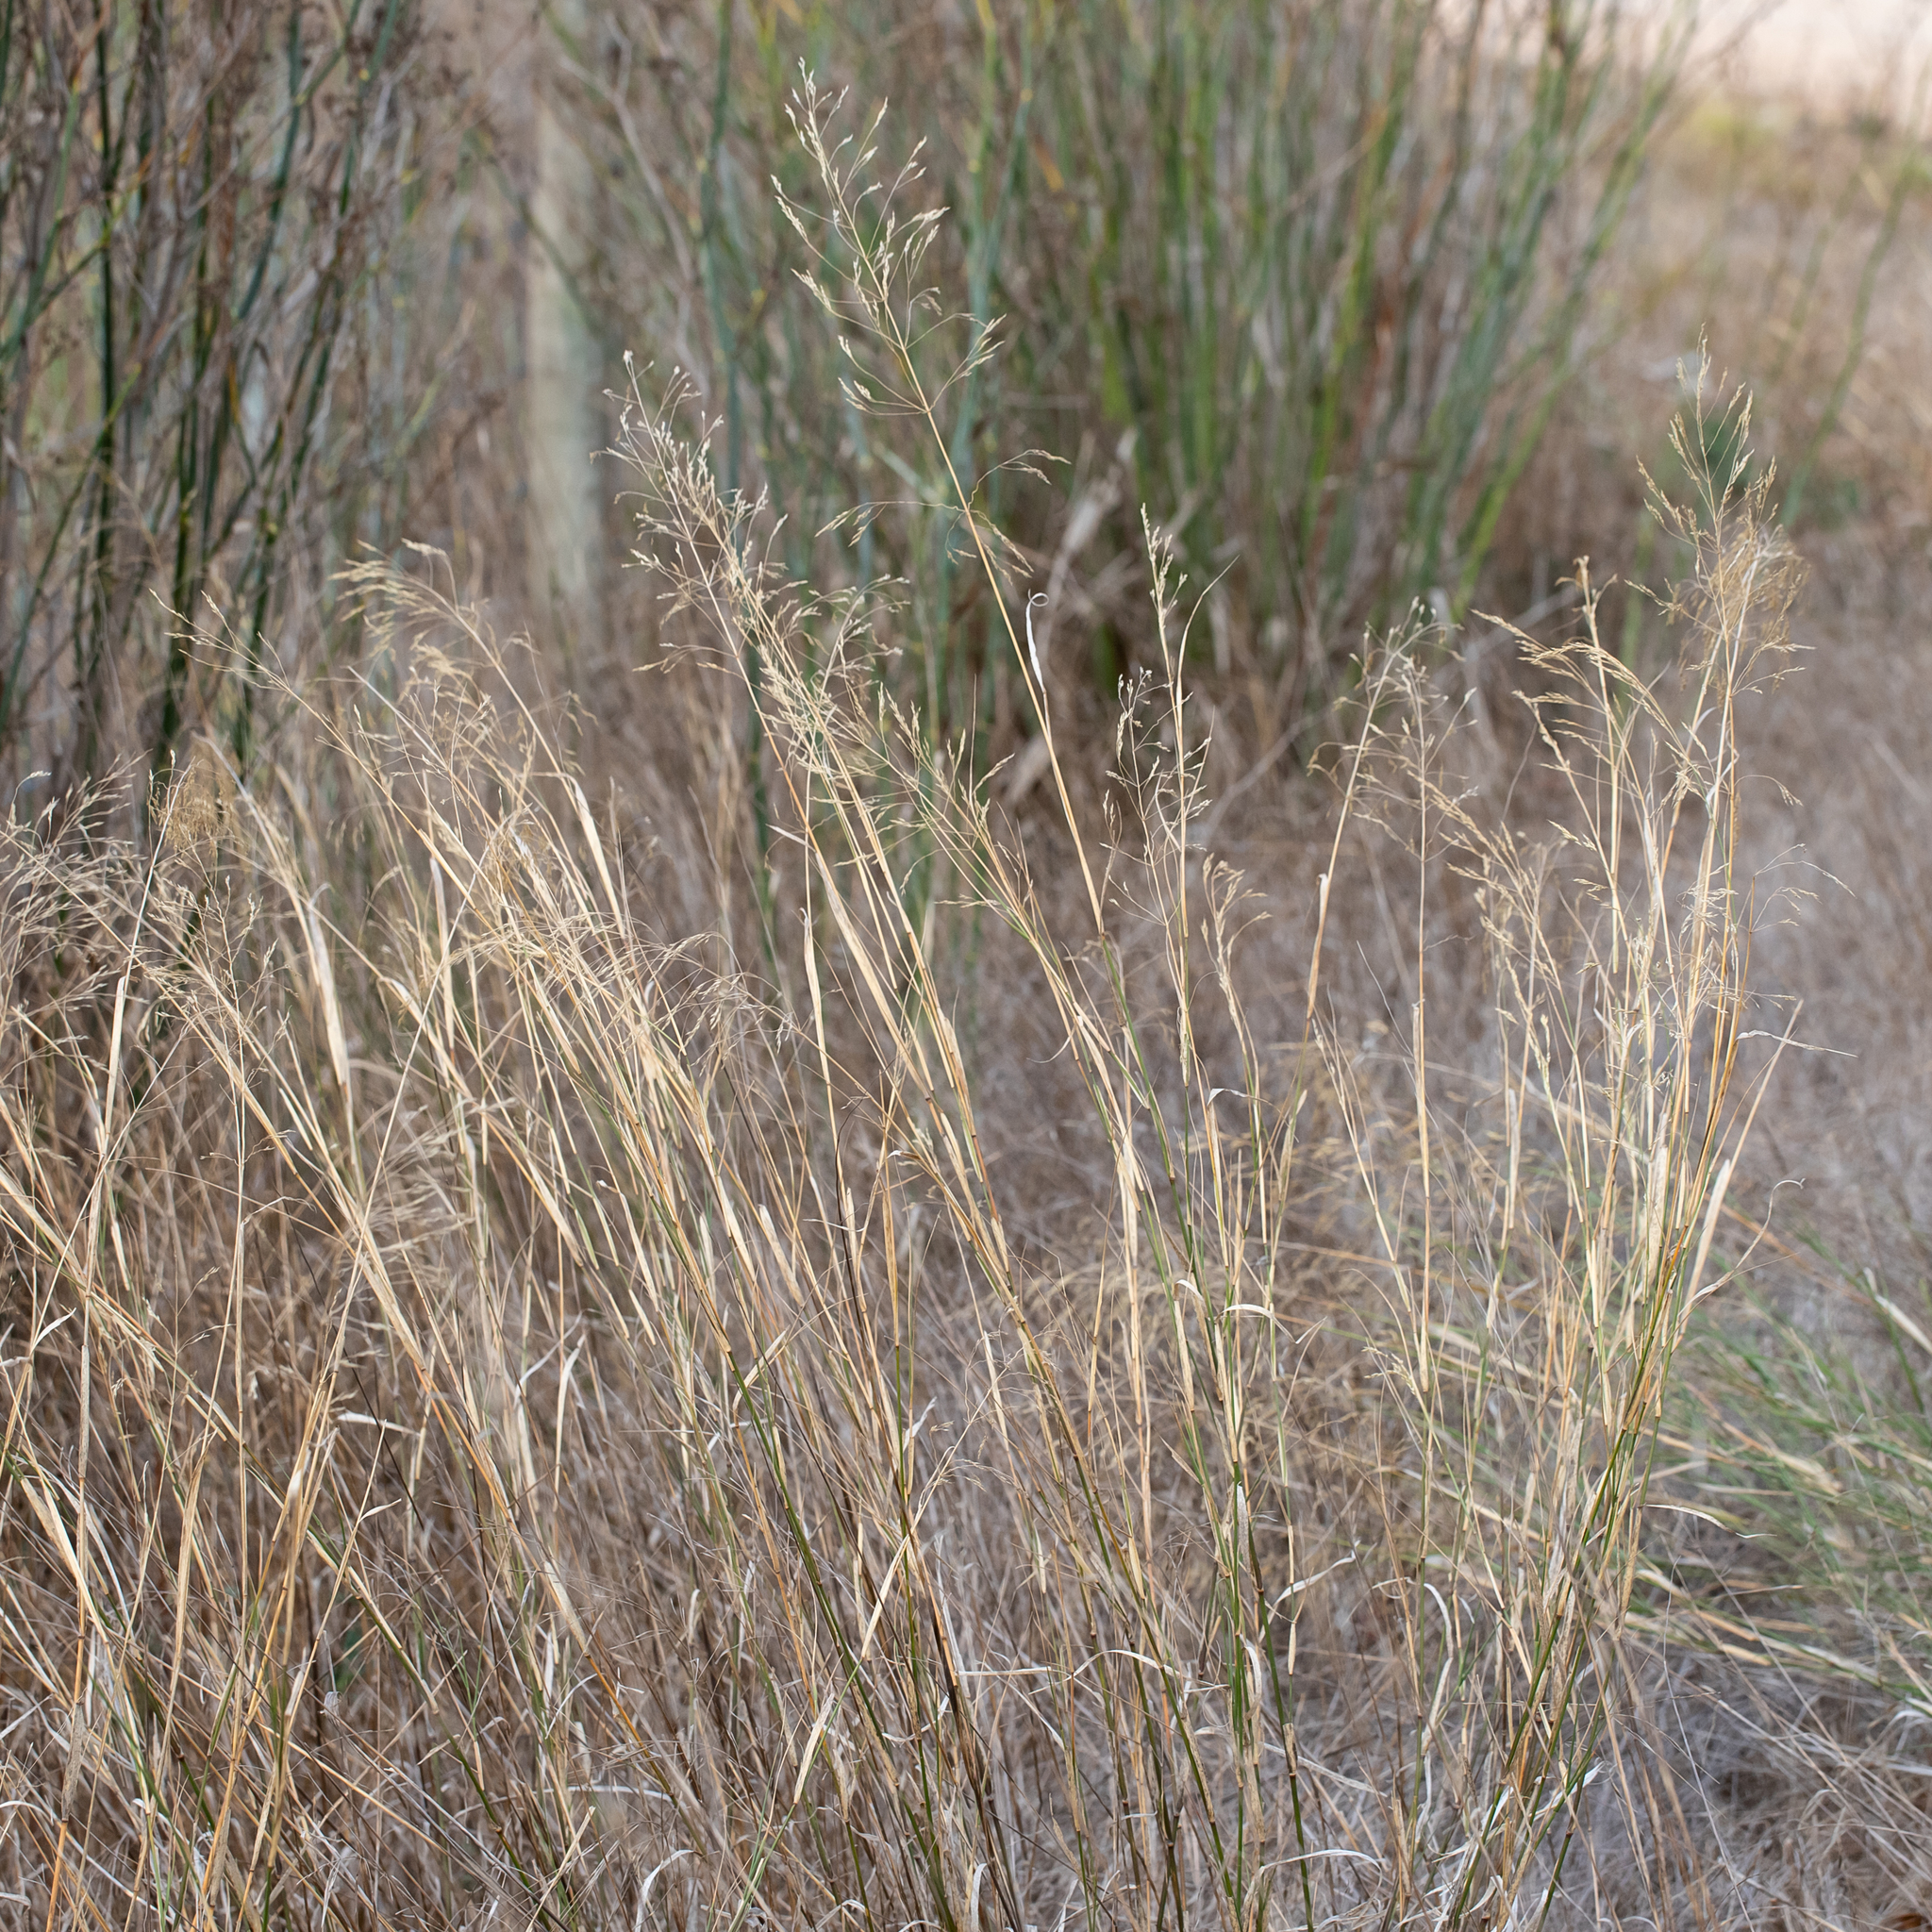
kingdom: Plantae
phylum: Tracheophyta
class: Liliopsida
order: Poales
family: Poaceae
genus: Oloptum
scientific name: Oloptum miliaceum
